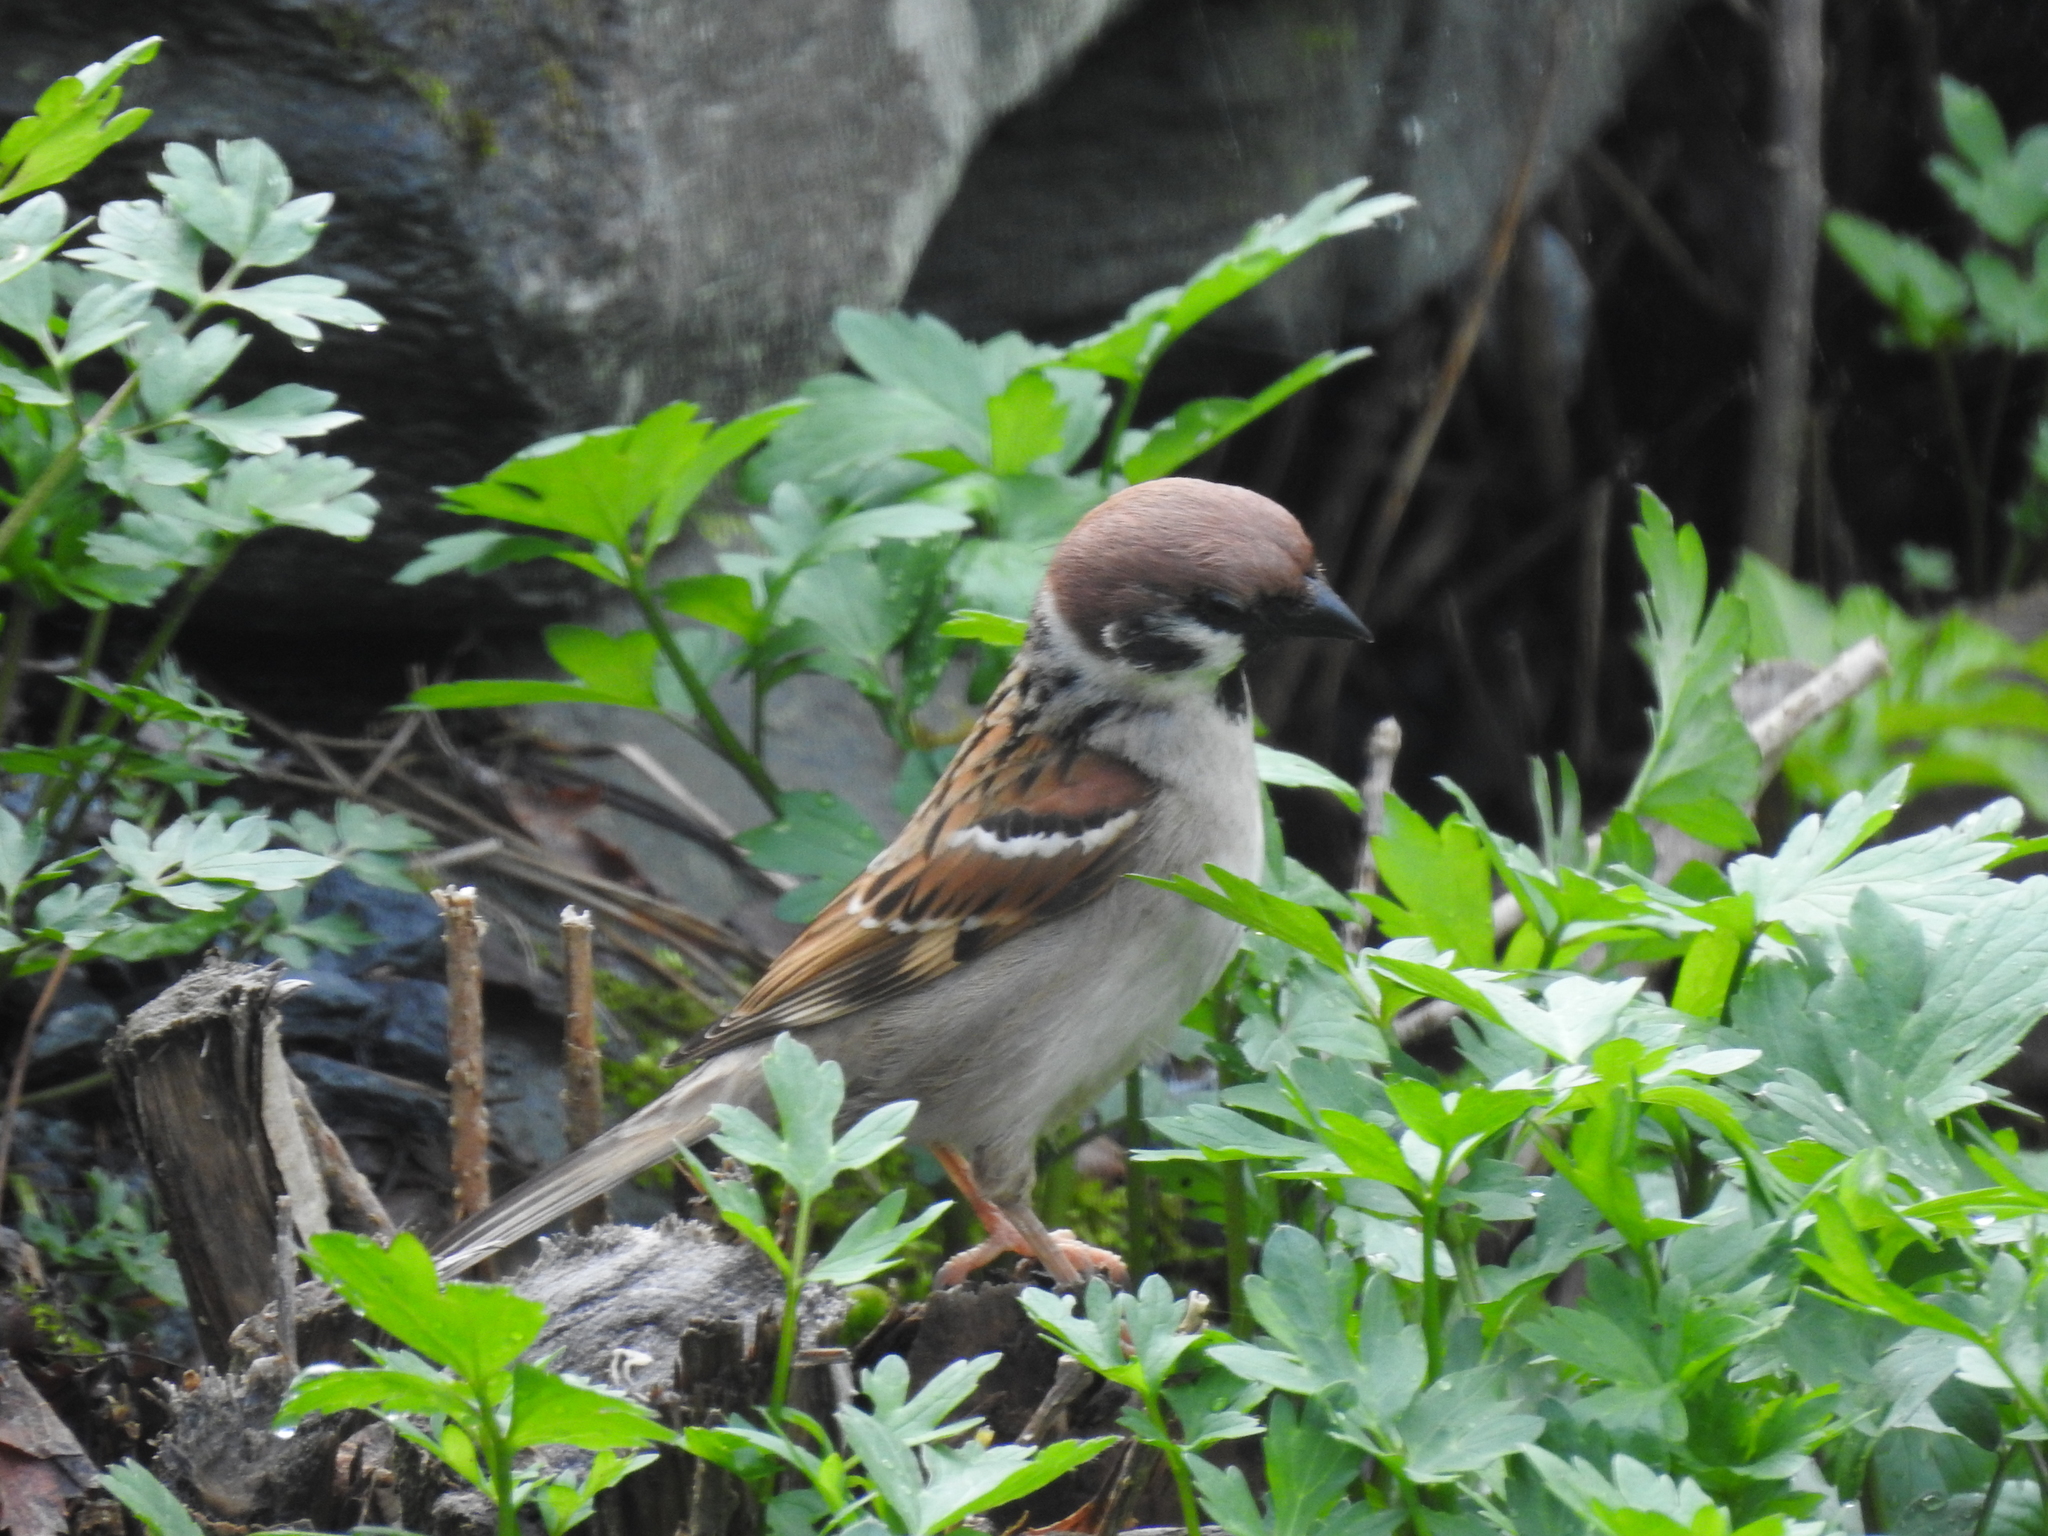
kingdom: Animalia
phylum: Chordata
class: Aves
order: Passeriformes
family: Passeridae
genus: Passer
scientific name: Passer montanus
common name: Eurasian tree sparrow
